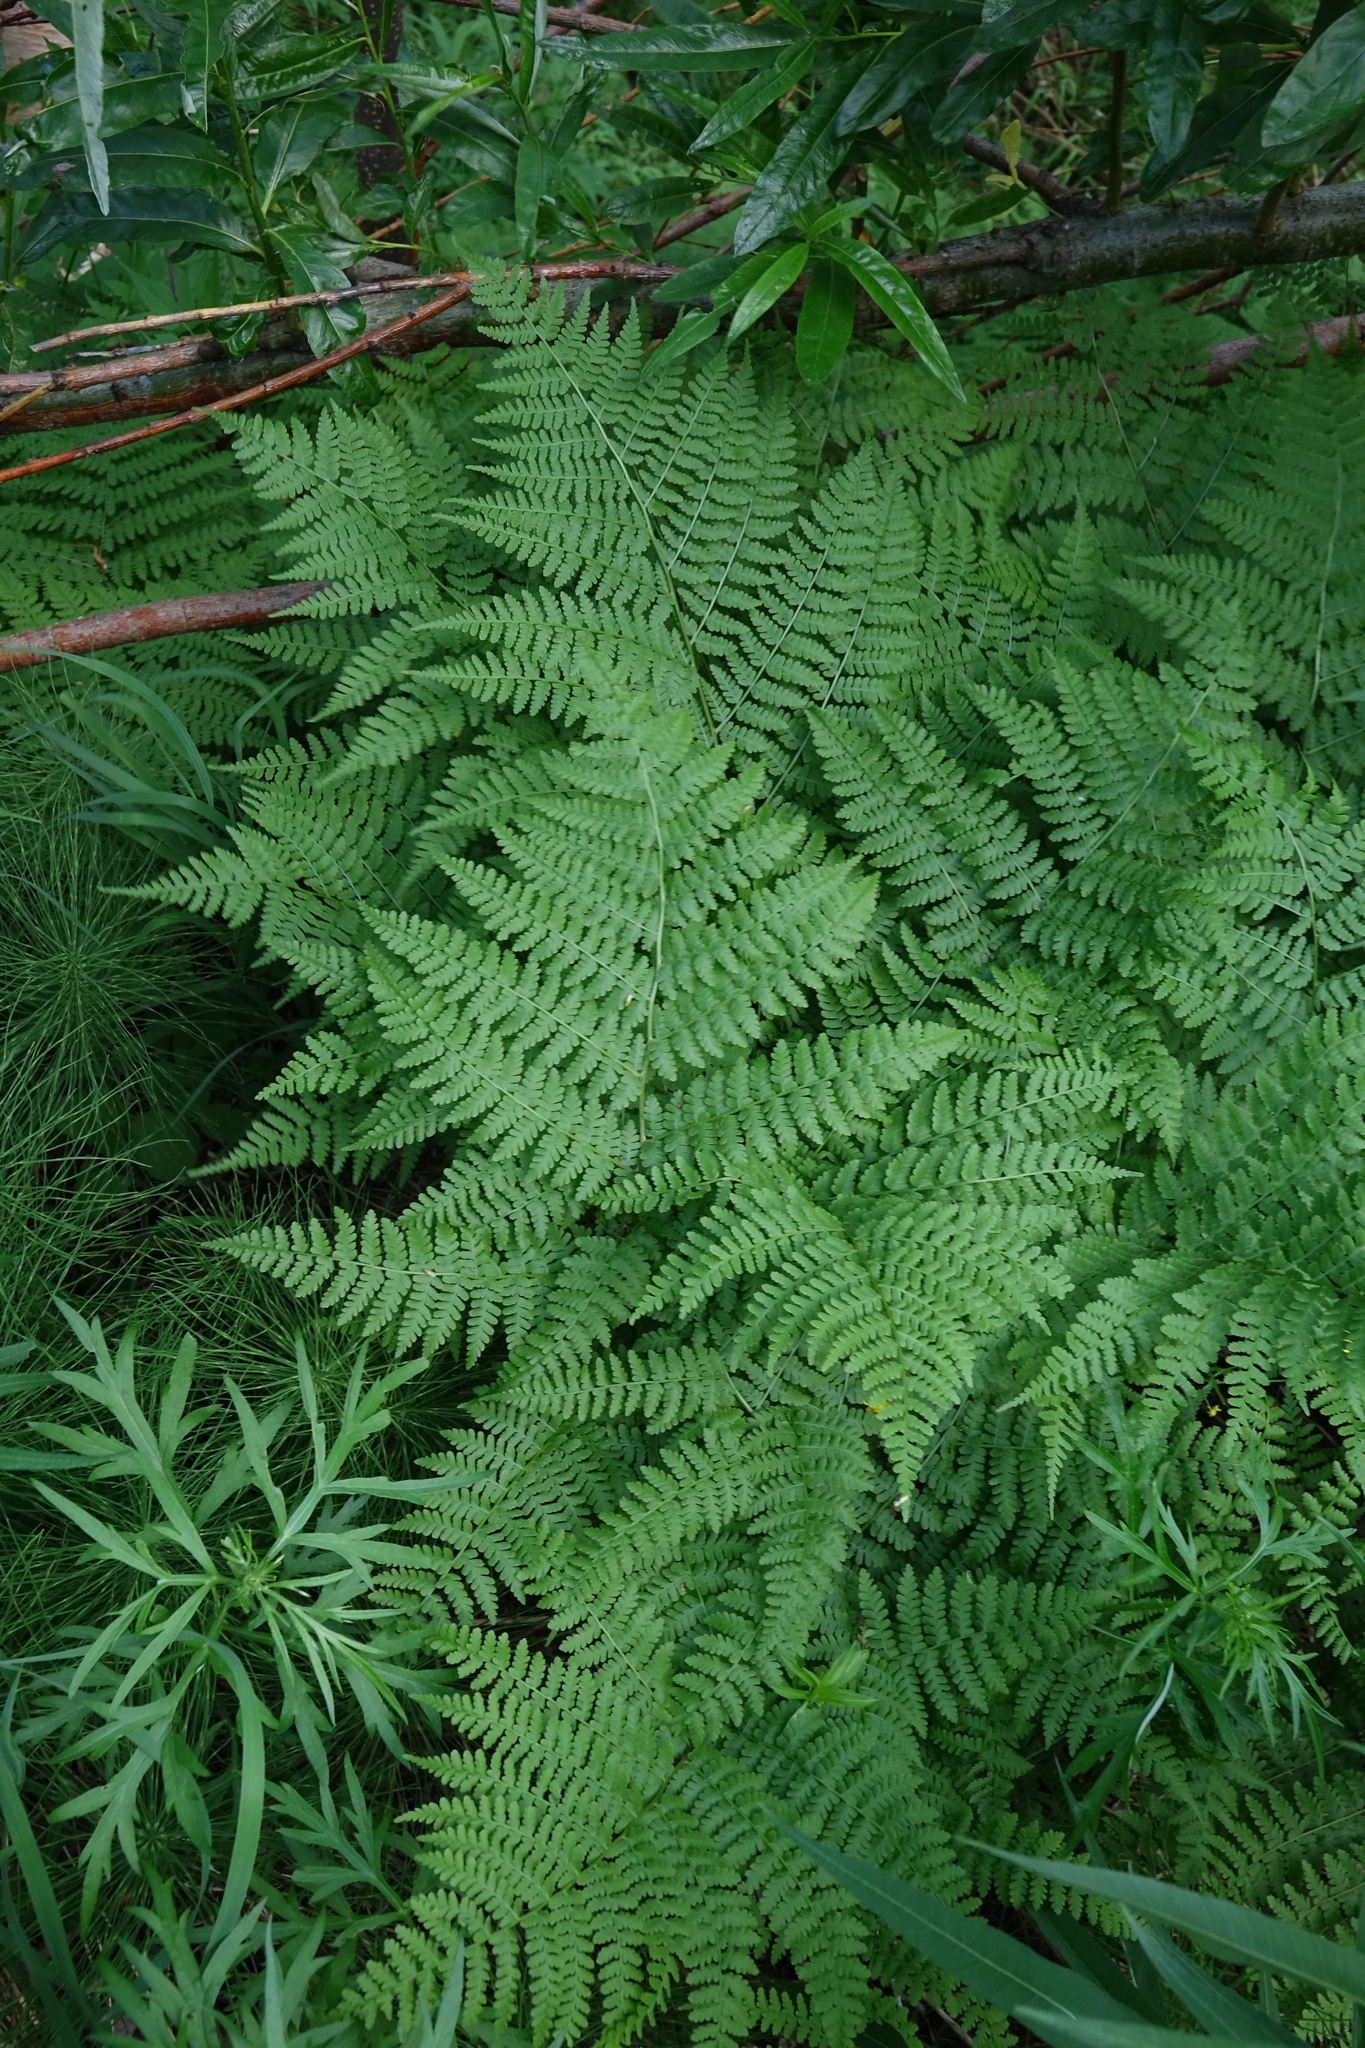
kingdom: Plantae
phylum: Tracheophyta
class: Polypodiopsida
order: Polypodiales
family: Athyriaceae
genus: Diplazium
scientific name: Diplazium sibiricum
